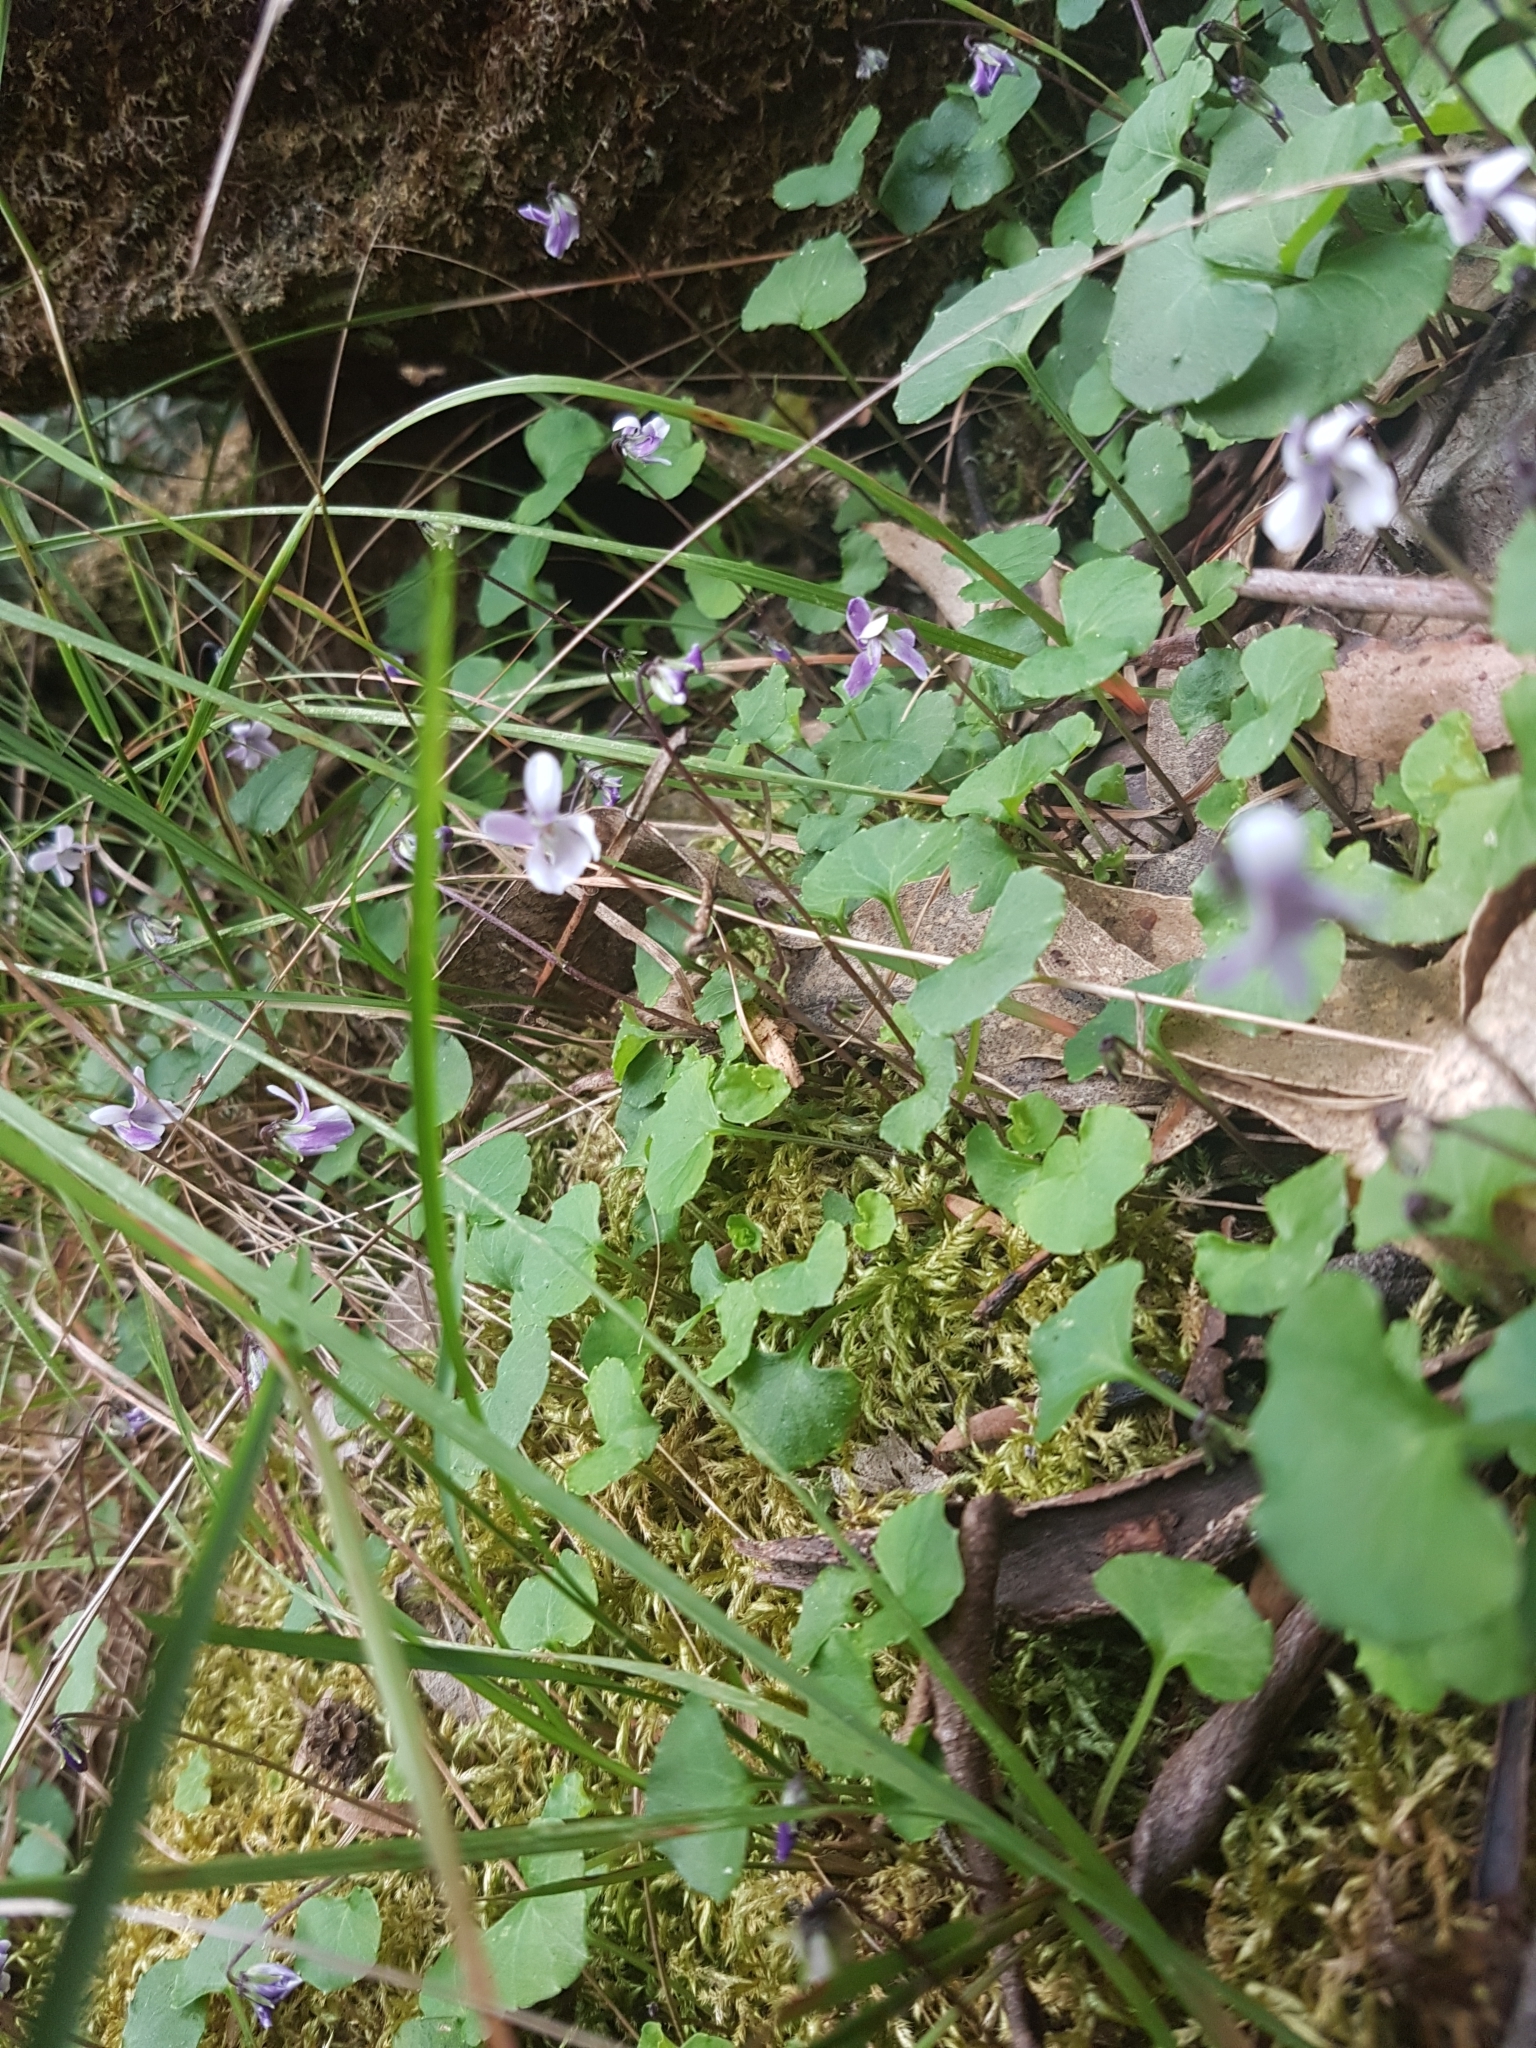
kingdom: Plantae
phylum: Tracheophyta
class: Magnoliopsida
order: Malpighiales
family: Violaceae
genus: Viola
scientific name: Viola hederacea
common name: Australian violet
